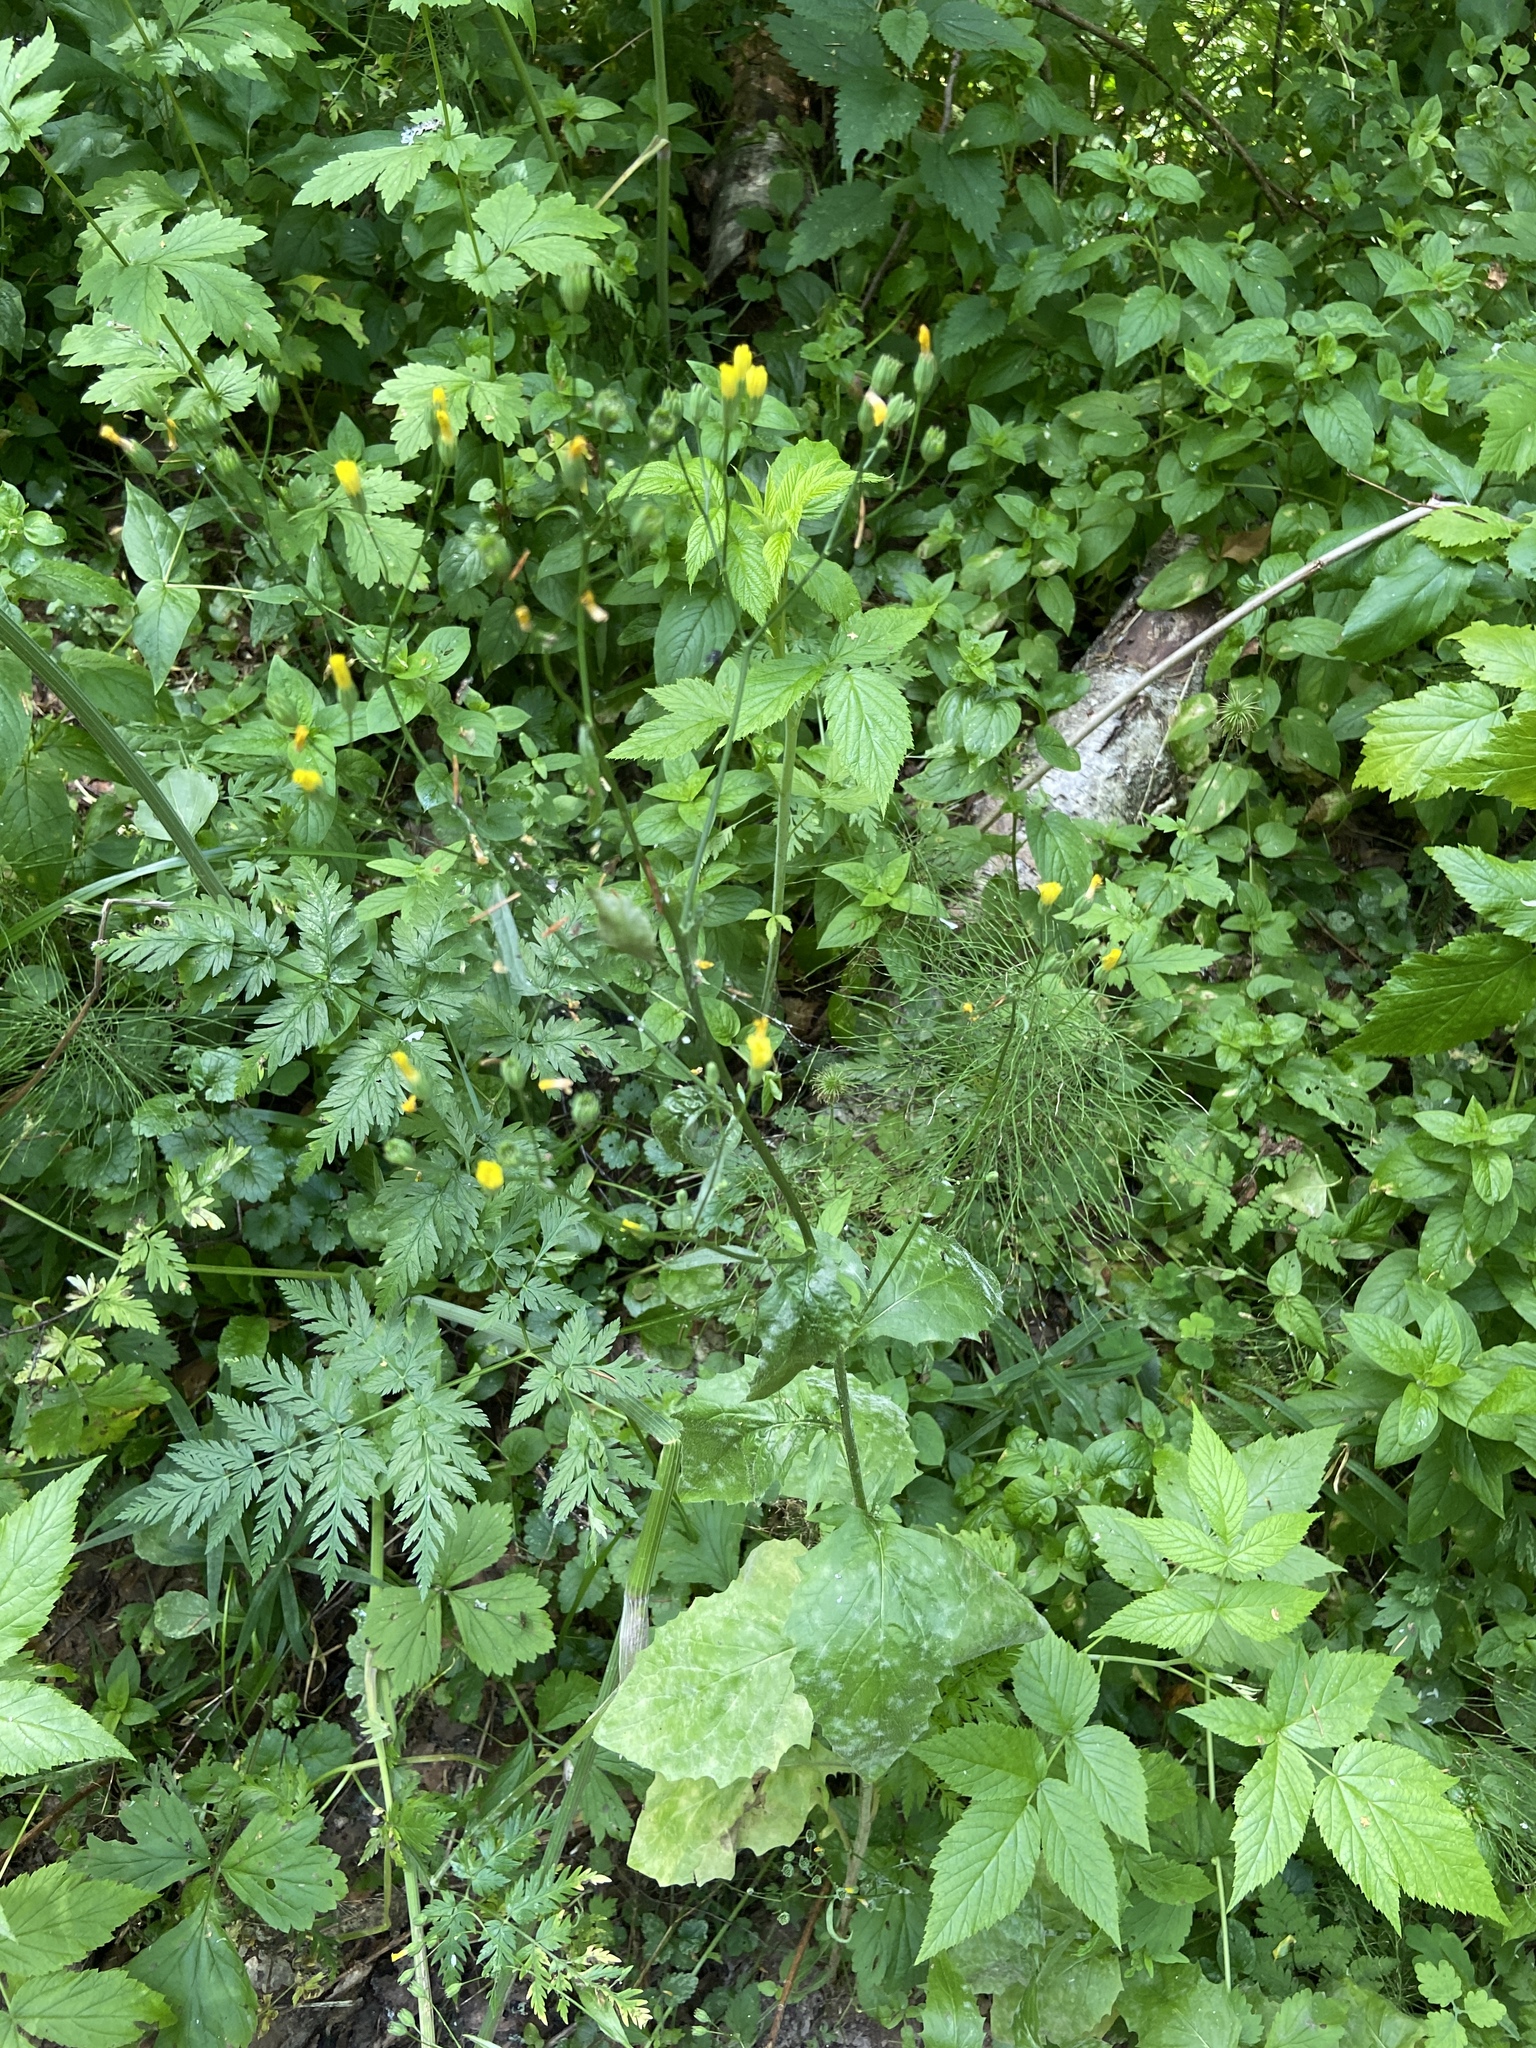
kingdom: Plantae
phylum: Tracheophyta
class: Magnoliopsida
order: Asterales
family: Asteraceae
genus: Lapsana
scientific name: Lapsana communis
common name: Nipplewort
